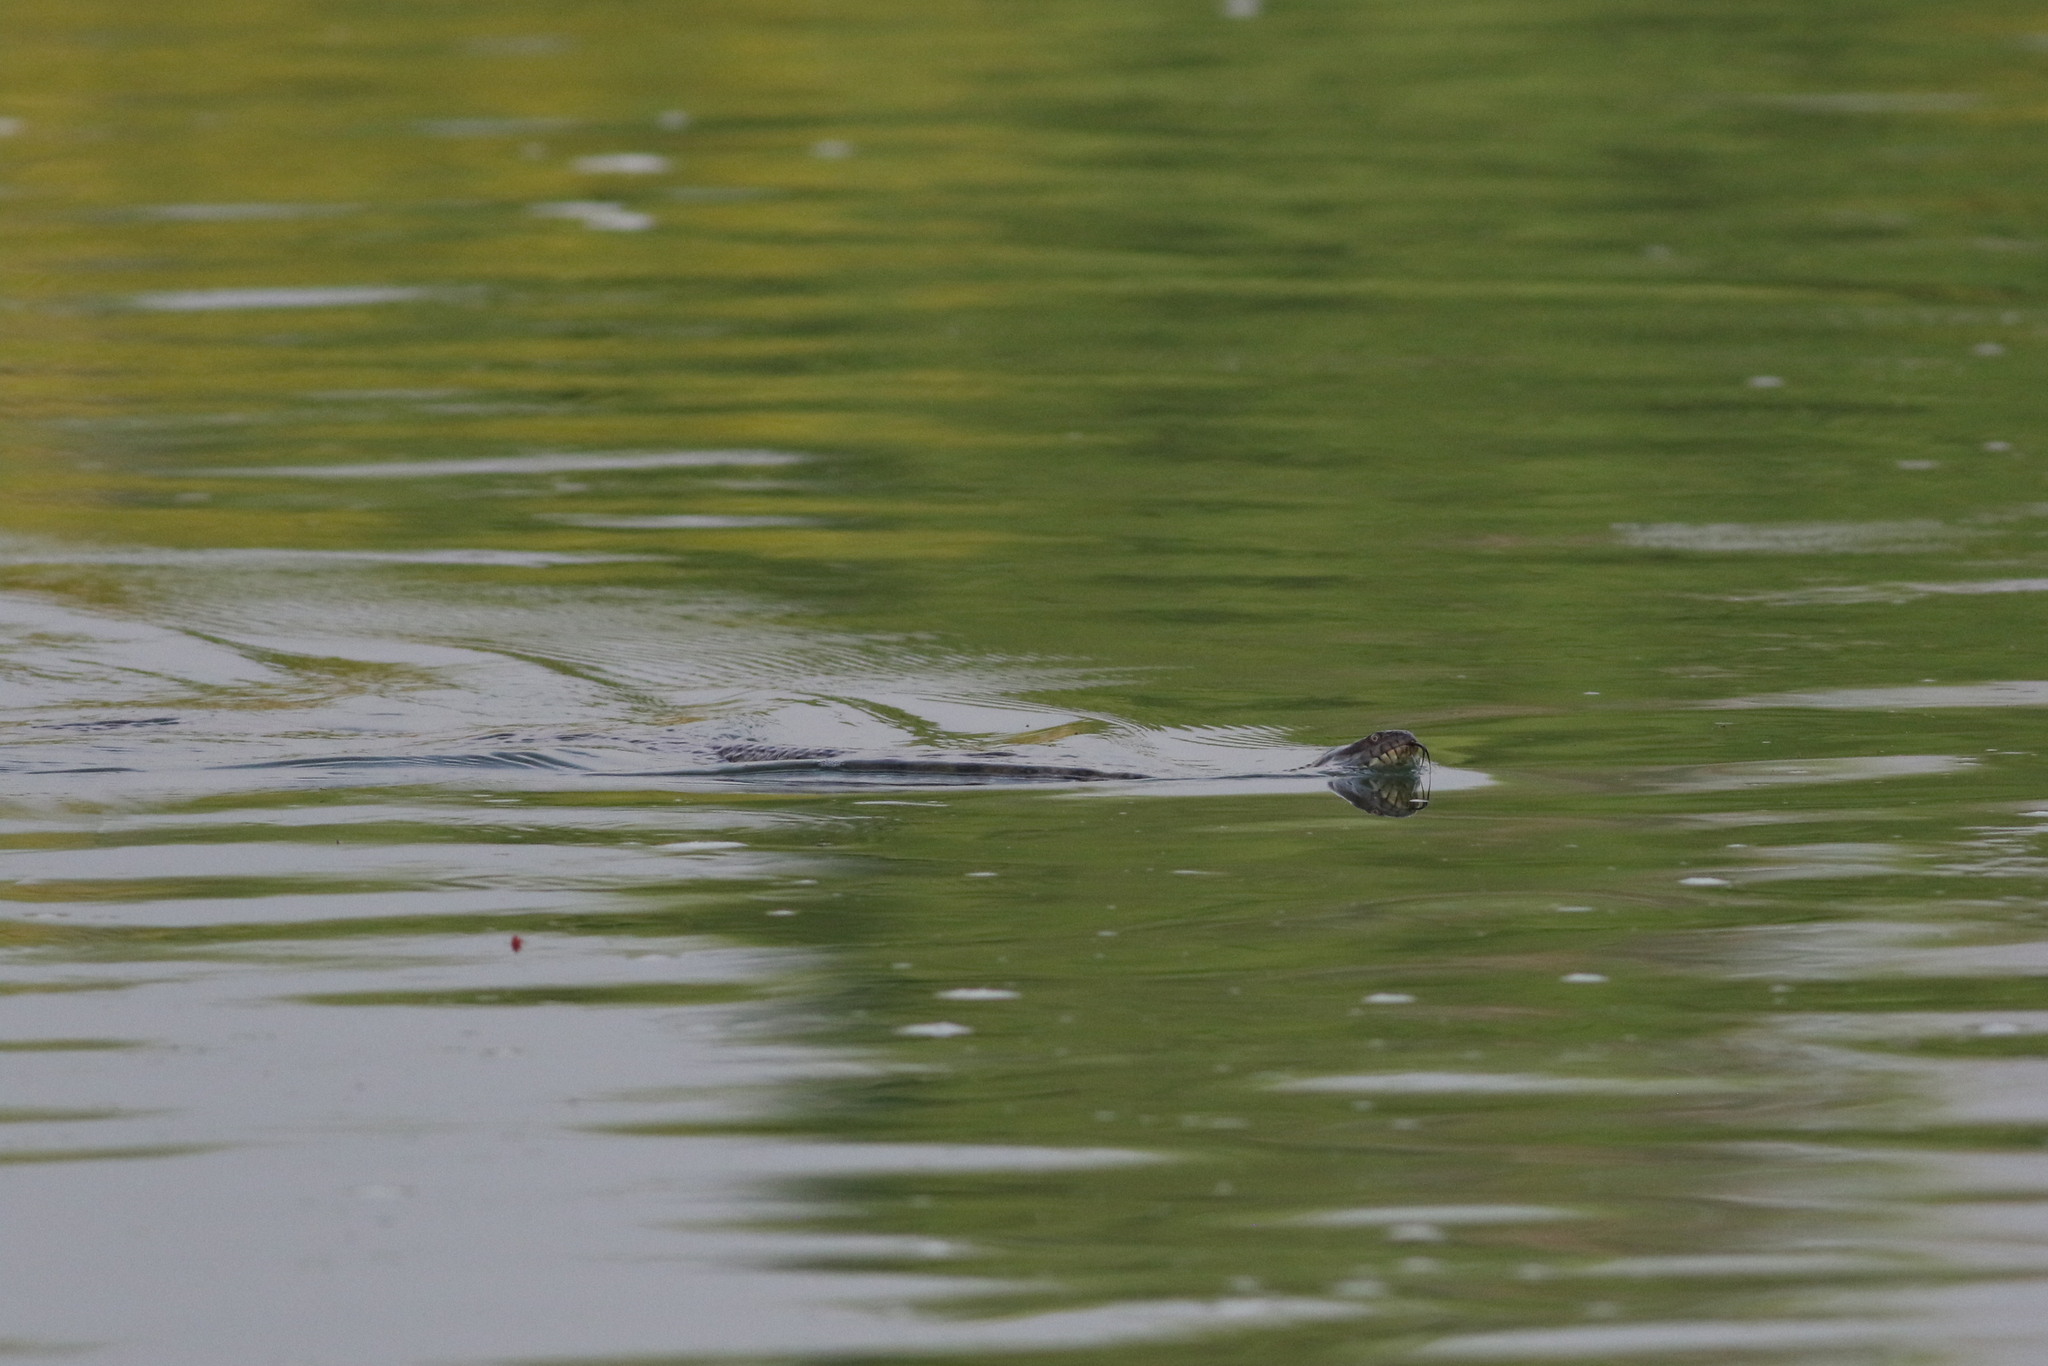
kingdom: Animalia
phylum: Chordata
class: Squamata
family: Colubridae
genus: Nerodia
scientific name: Nerodia rhombifer
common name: Diamondback water snake
